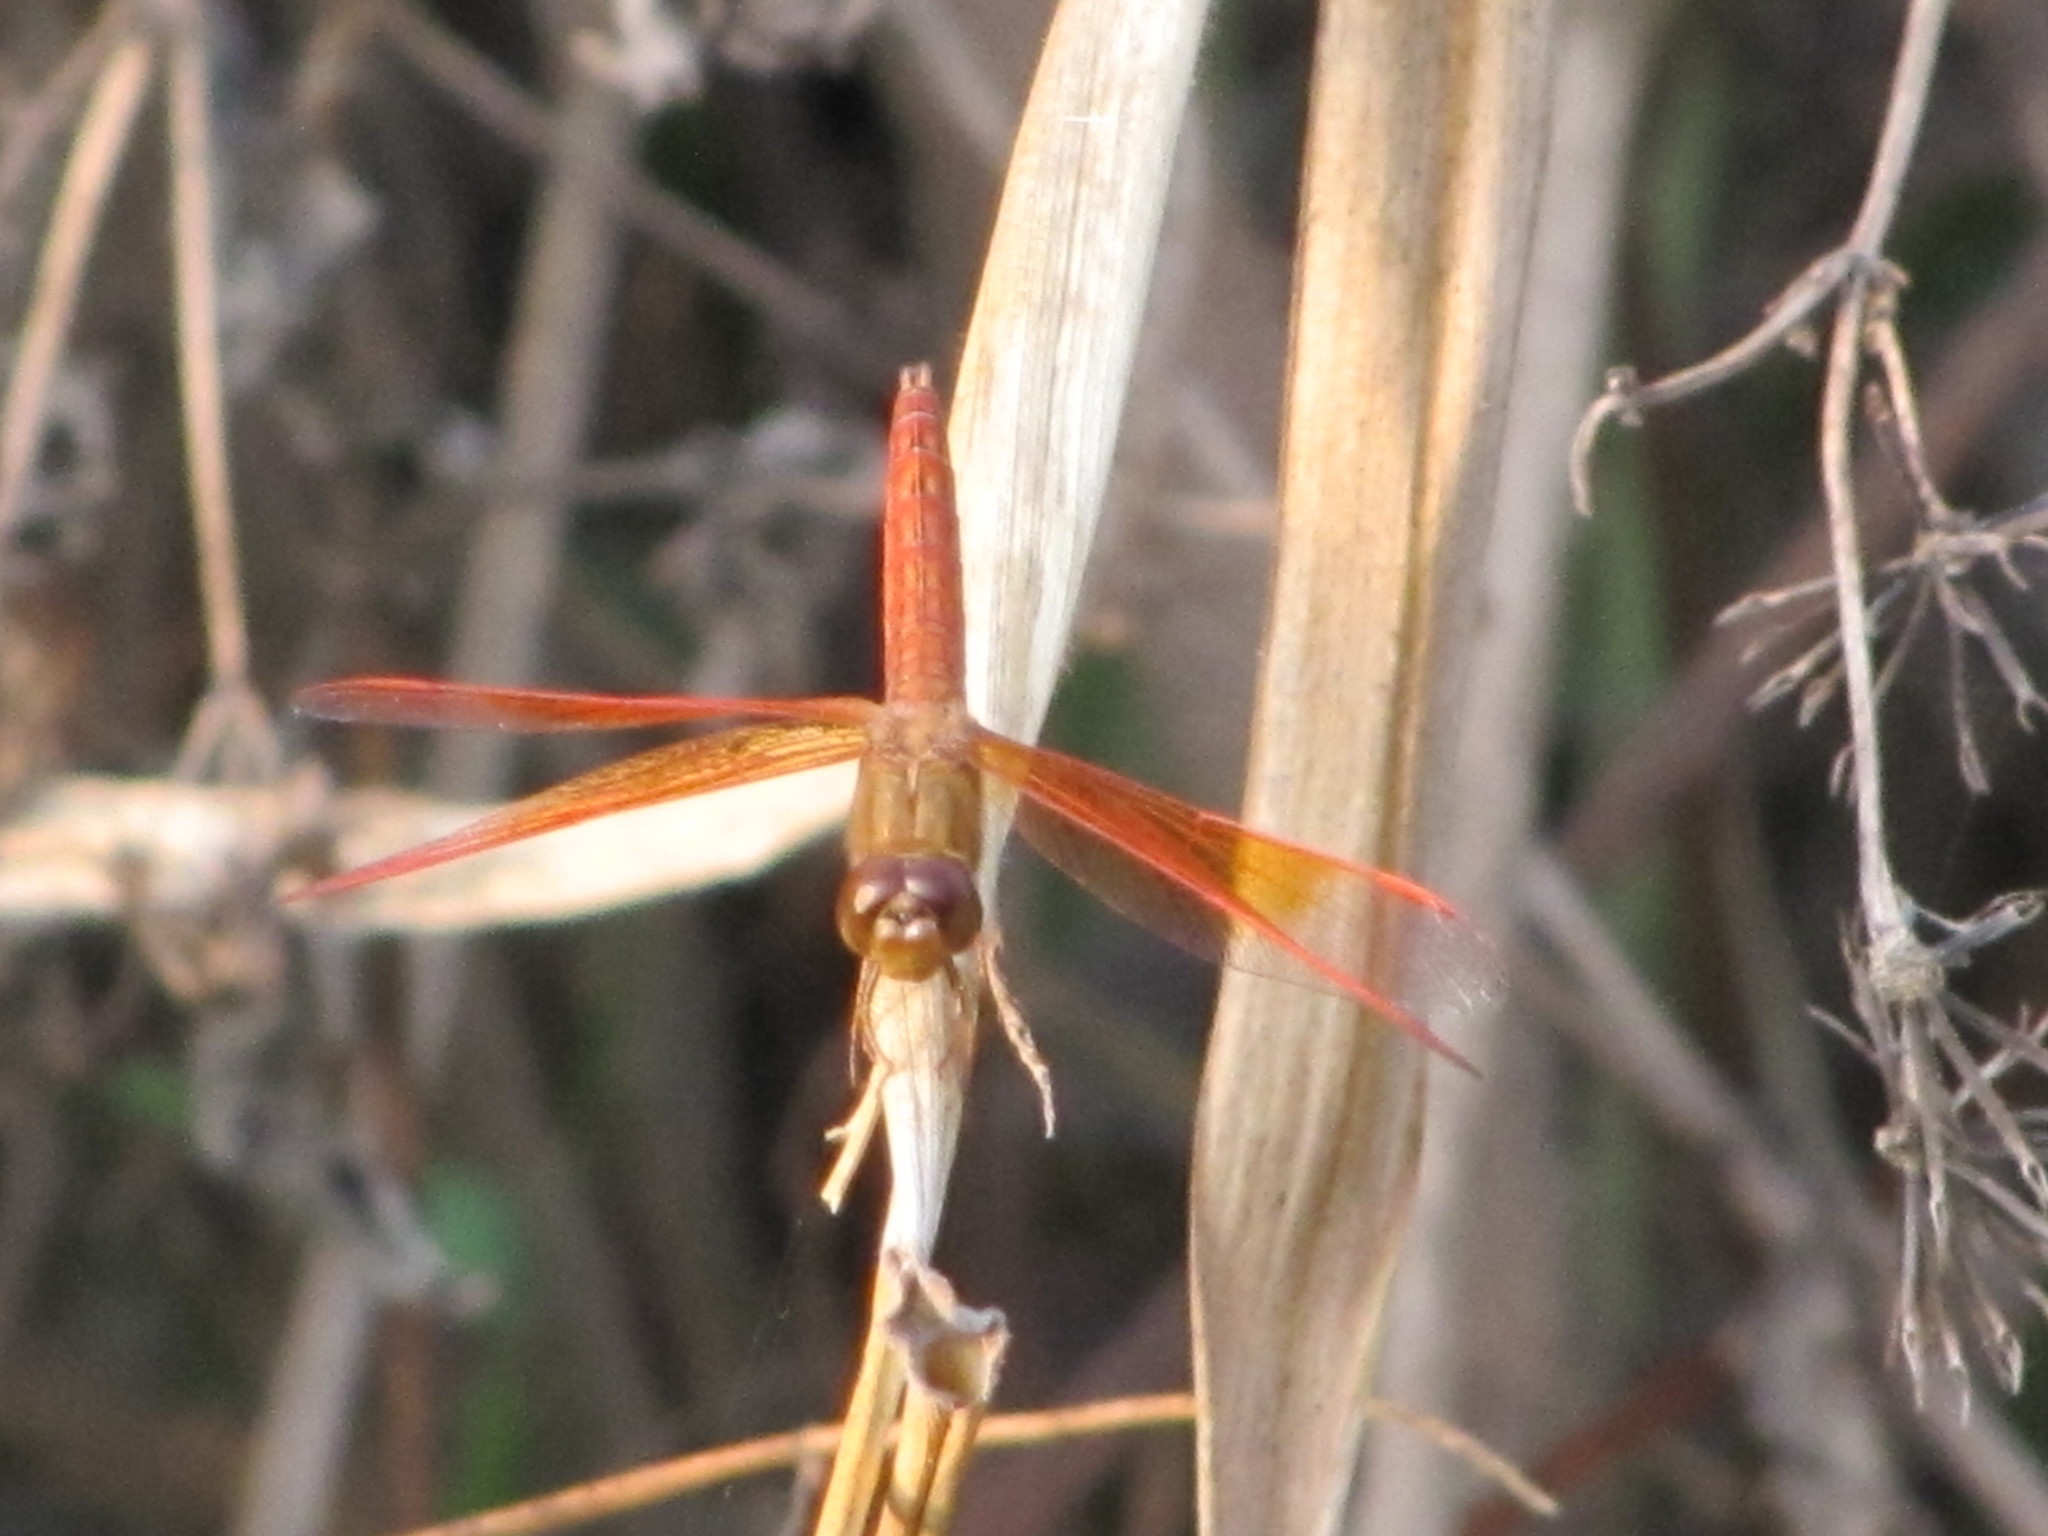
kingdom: Animalia
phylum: Arthropoda
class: Insecta
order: Odonata
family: Libellulidae
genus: Brachythemis
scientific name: Brachythemis contaminata
